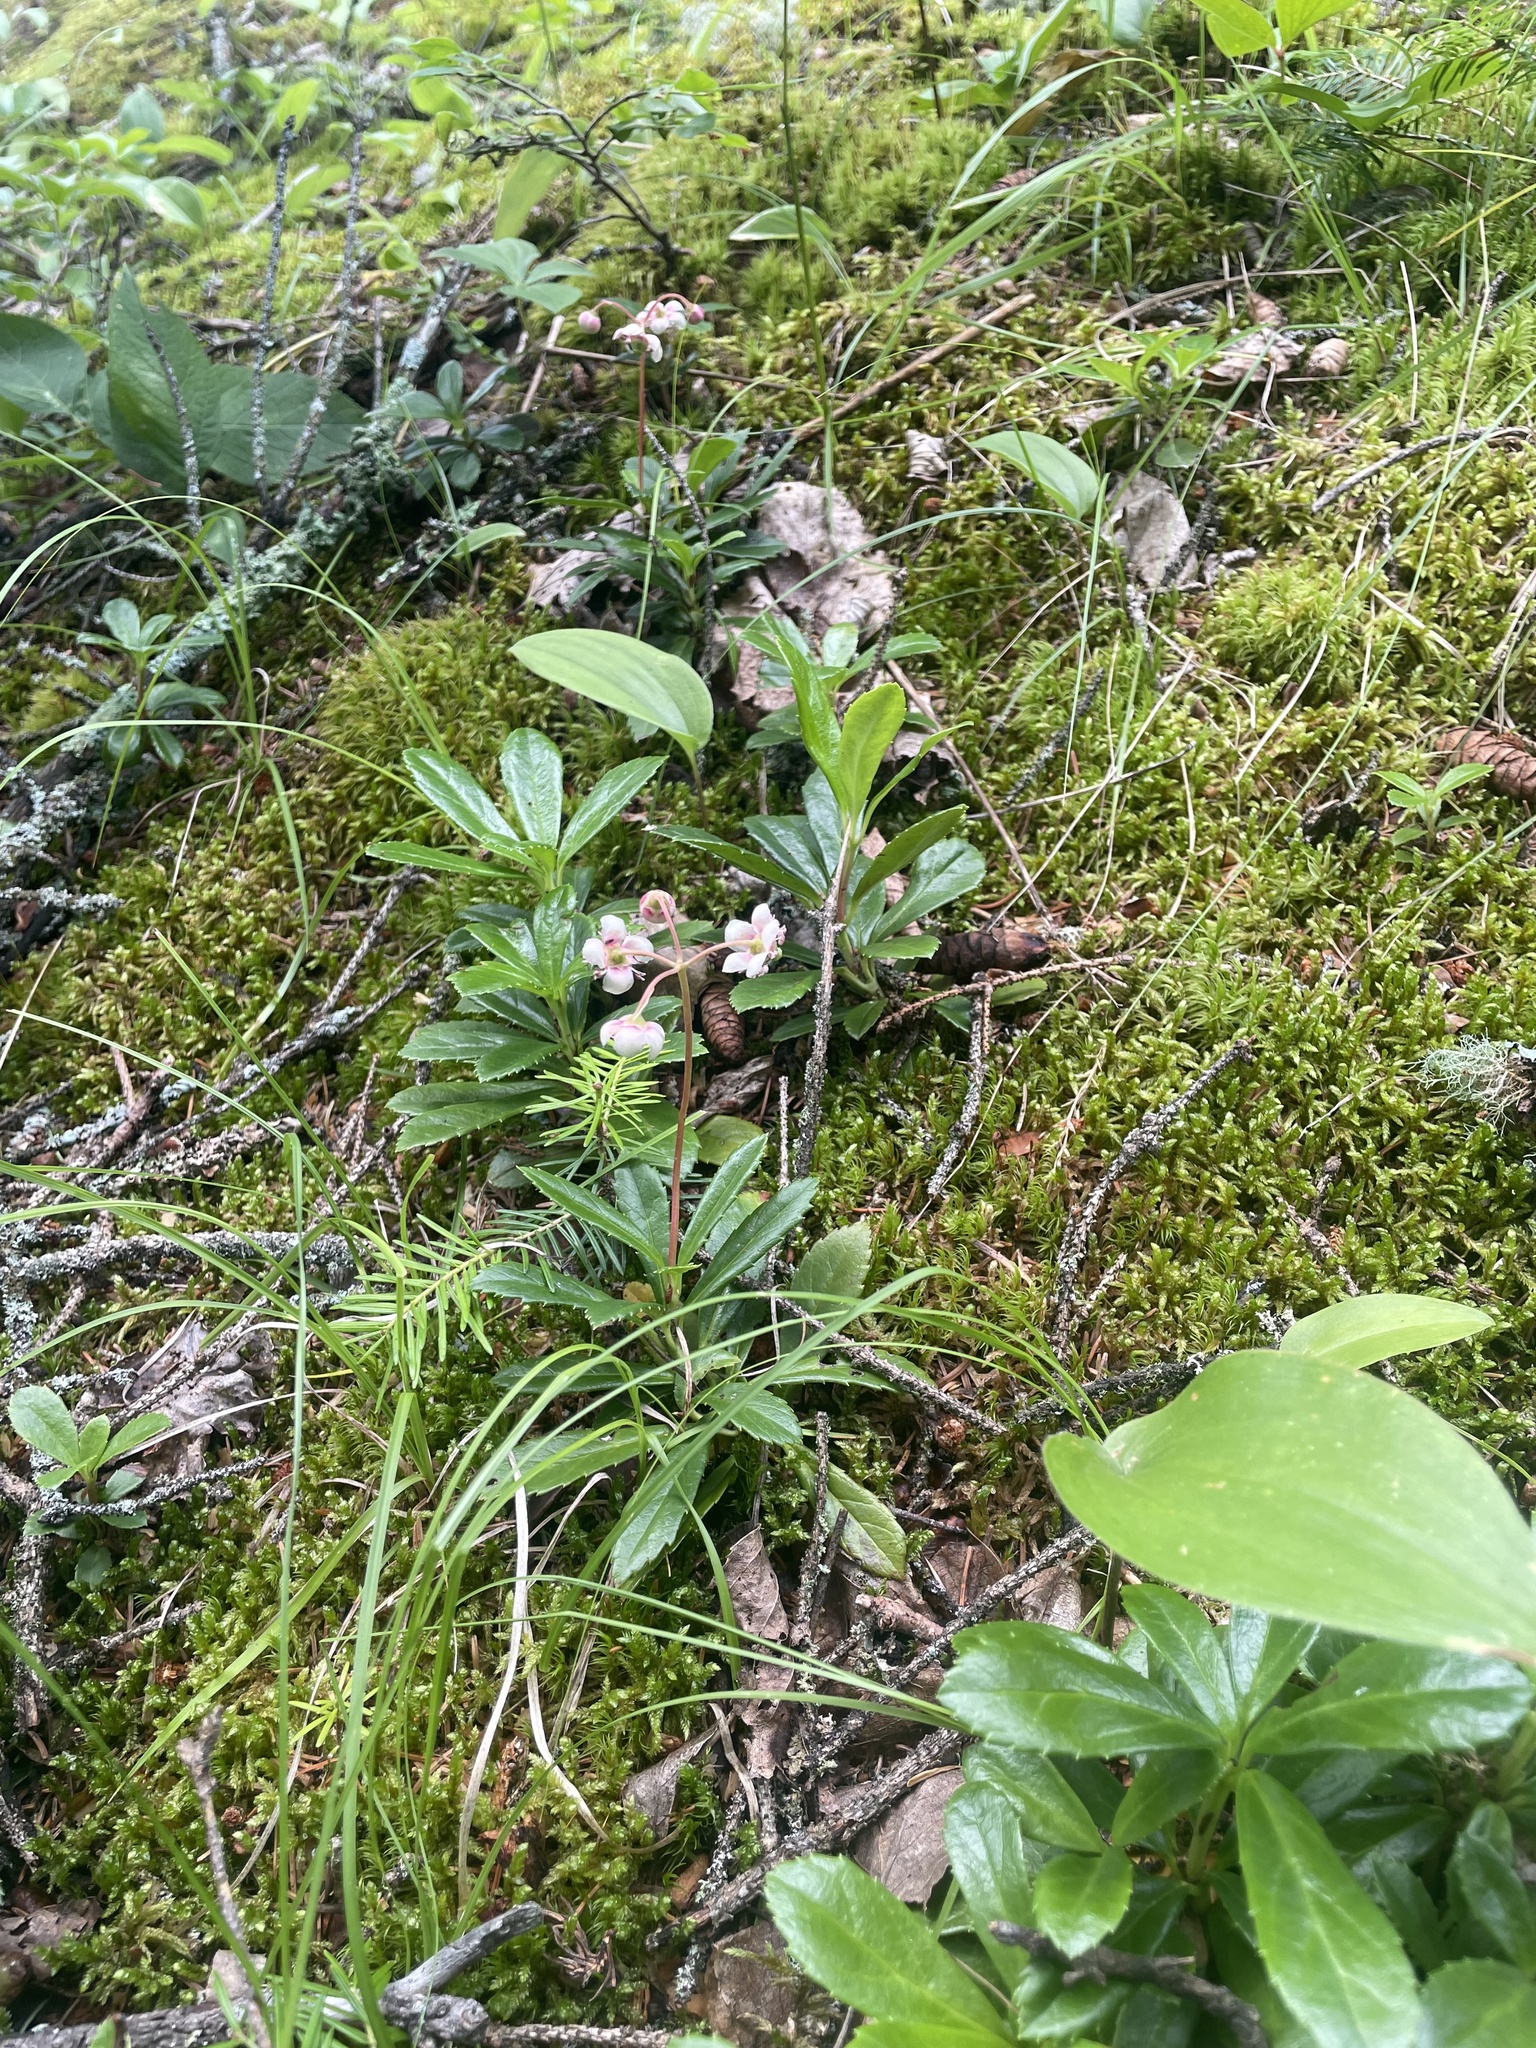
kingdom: Plantae
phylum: Tracheophyta
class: Magnoliopsida
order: Ericales
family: Ericaceae
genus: Chimaphila
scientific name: Chimaphila umbellata
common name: Pipsissewa
